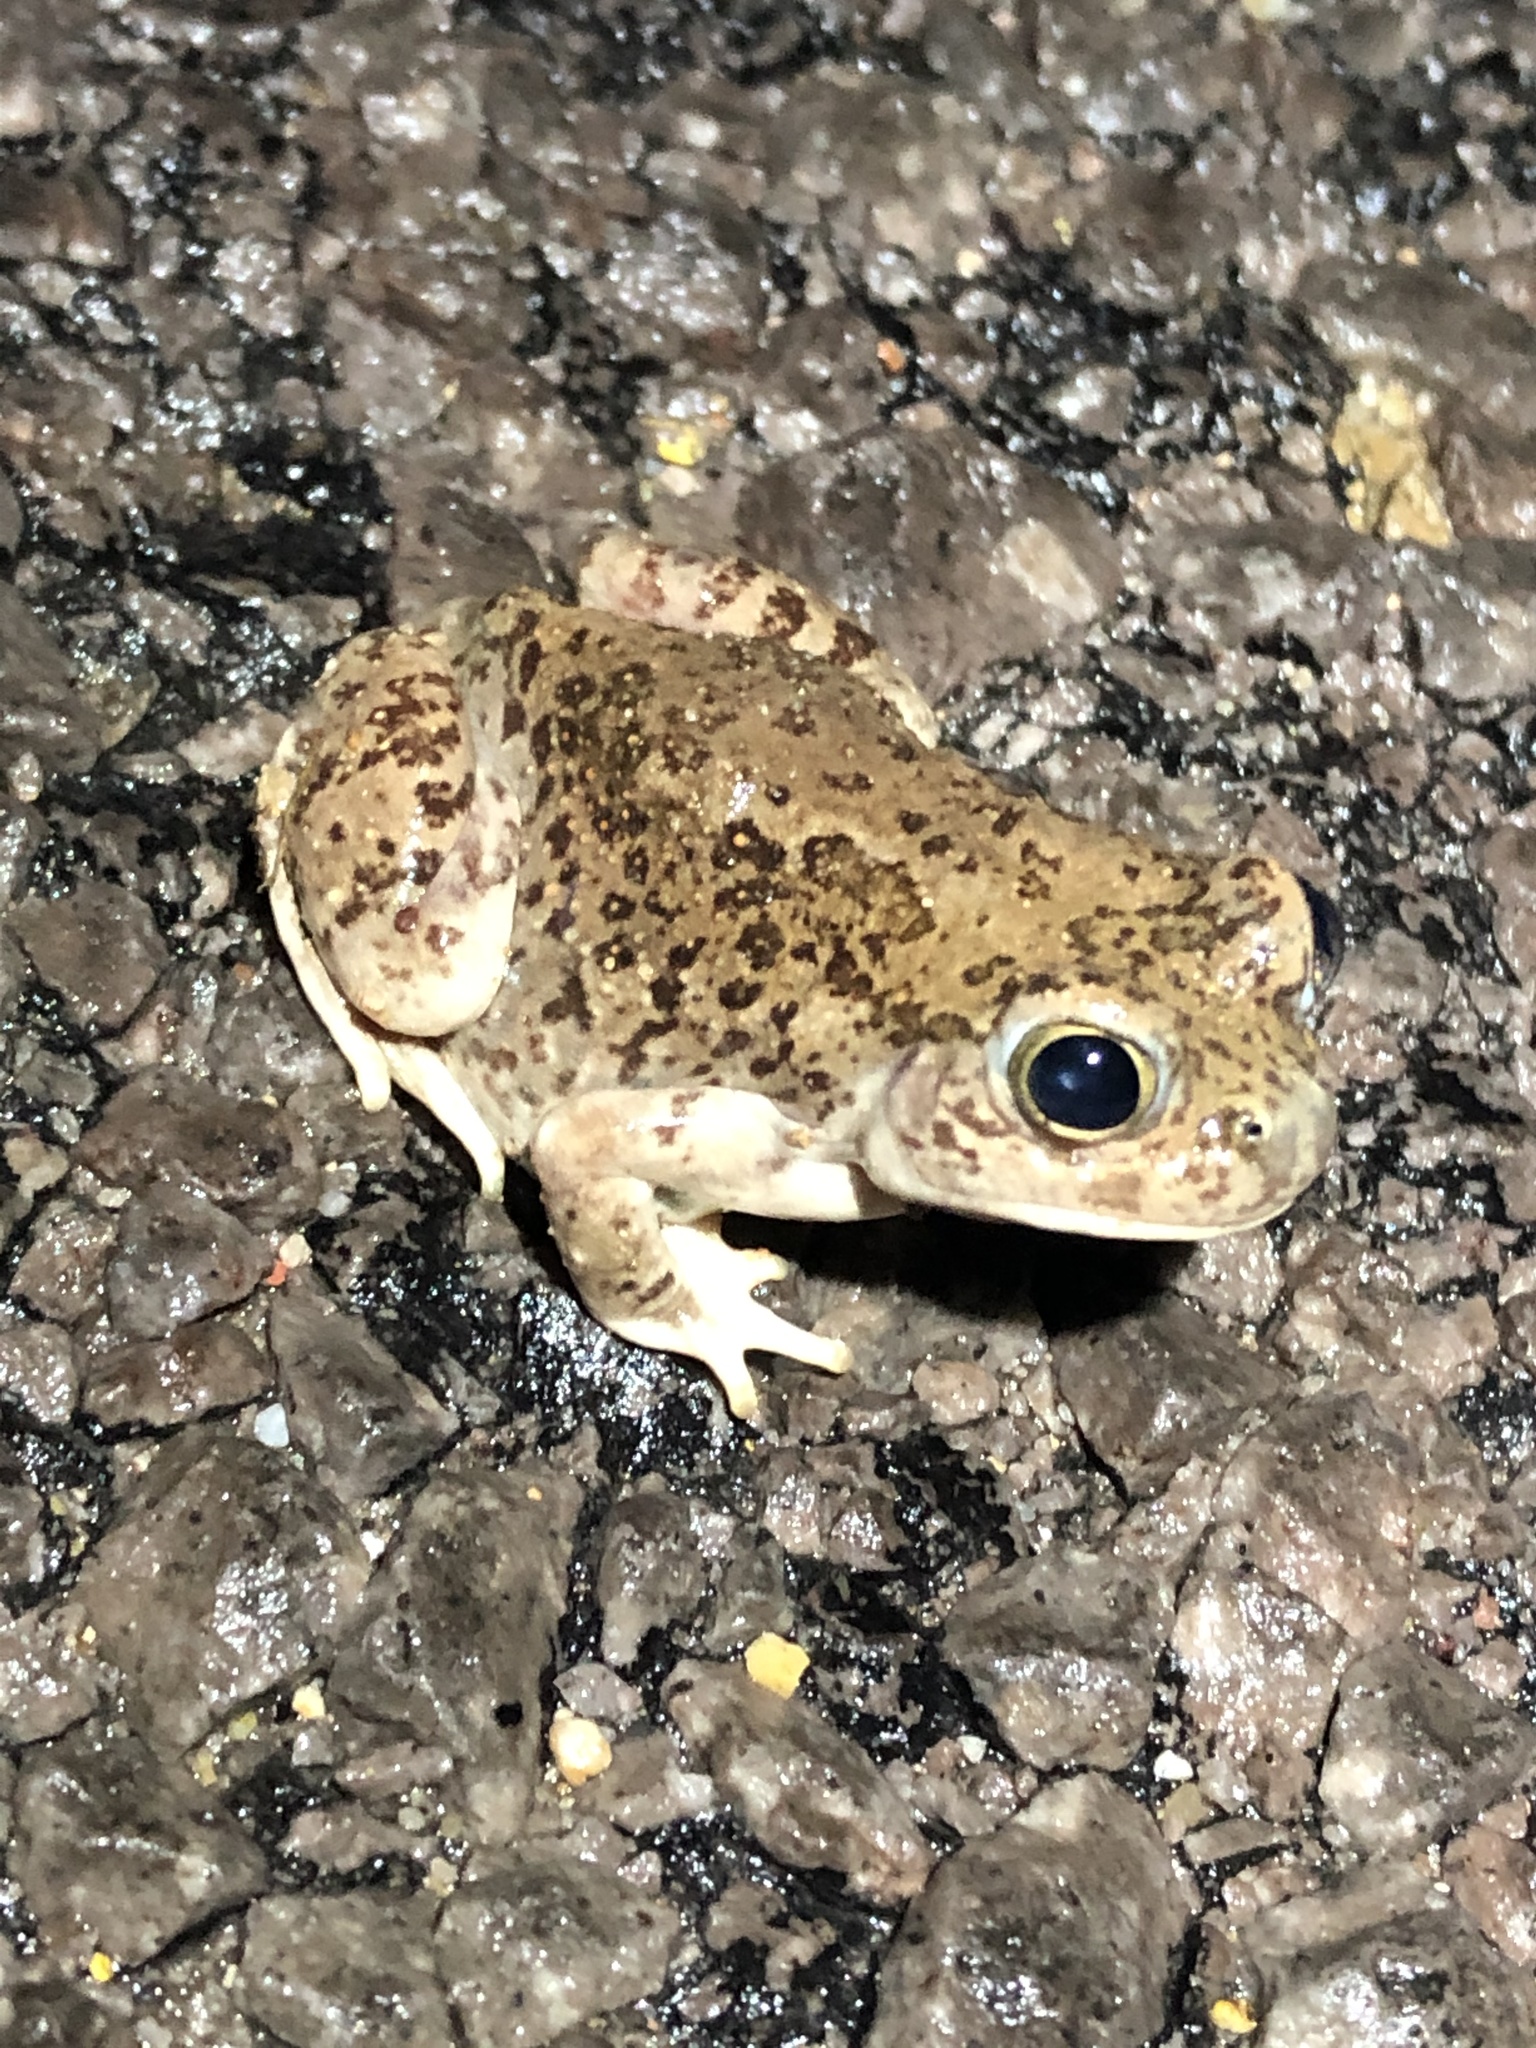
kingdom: Animalia
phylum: Chordata
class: Amphibia
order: Anura
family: Scaphiopodidae
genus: Spea
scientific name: Spea multiplicata
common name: Mexican spadefoot
